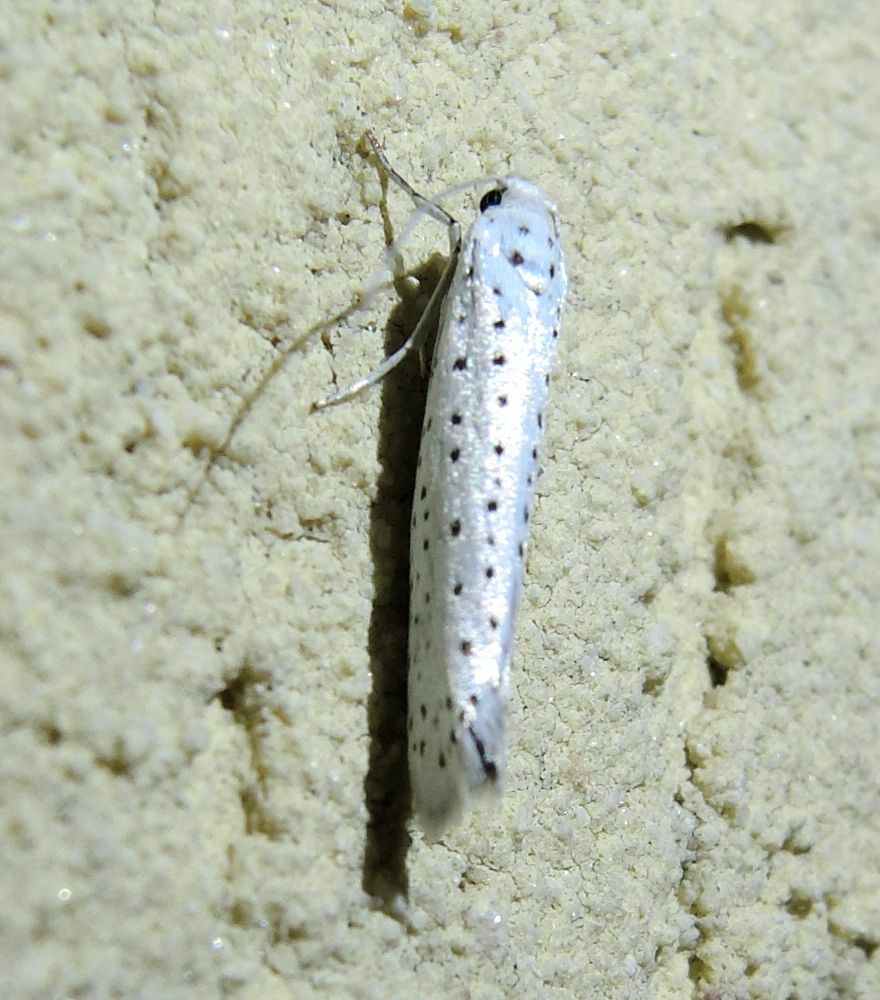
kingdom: Animalia
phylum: Arthropoda
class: Insecta
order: Lepidoptera
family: Yponomeutidae
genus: Yponomeuta
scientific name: Yponomeuta evonymella
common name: Bird-cherry ermine
